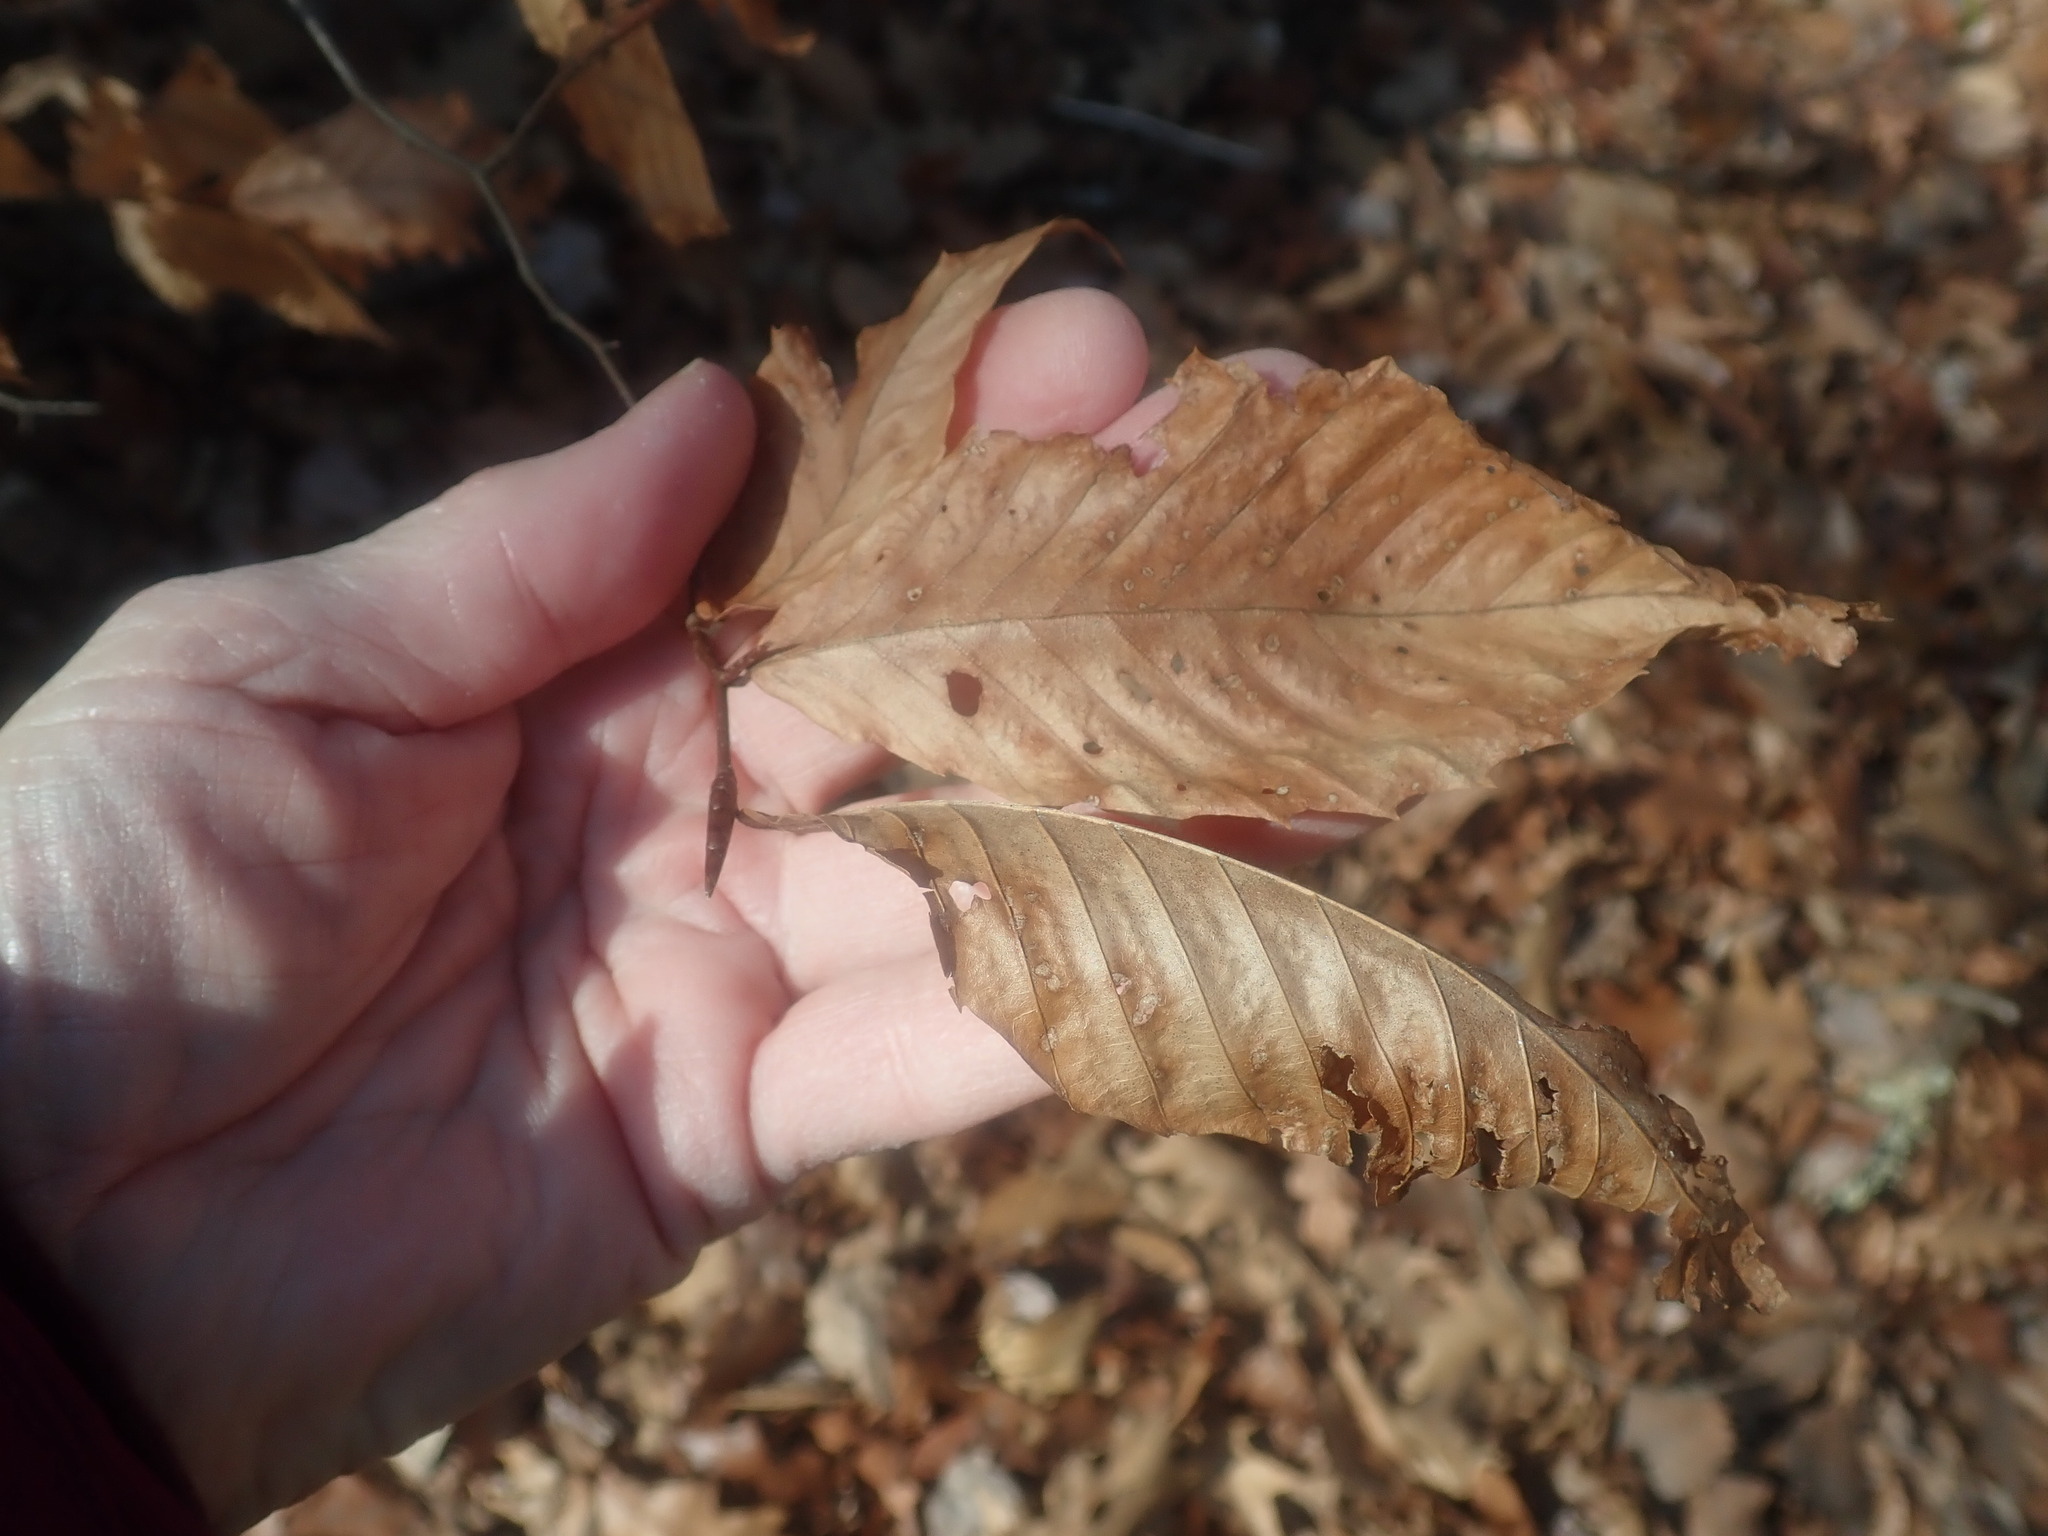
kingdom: Plantae
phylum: Tracheophyta
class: Magnoliopsida
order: Fagales
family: Fagaceae
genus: Fagus
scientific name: Fagus grandifolia
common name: American beech
